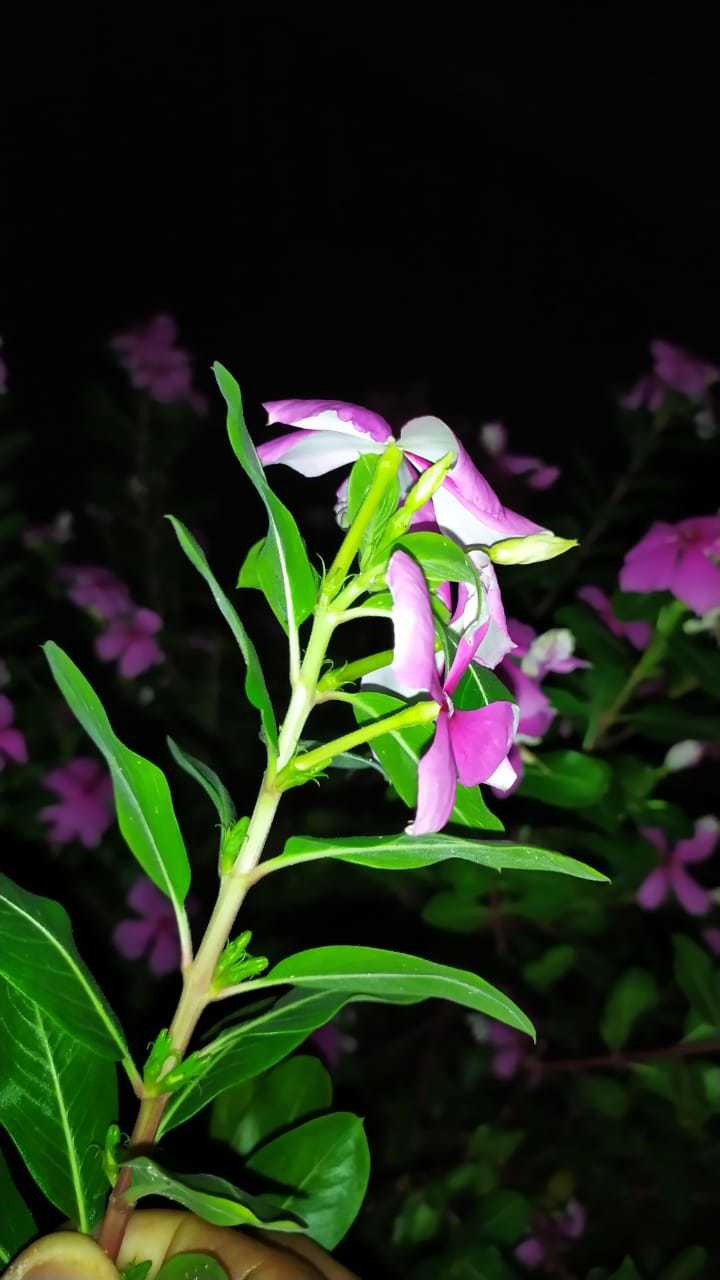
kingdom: Plantae
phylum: Tracheophyta
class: Magnoliopsida
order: Gentianales
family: Apocynaceae
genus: Catharanthus
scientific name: Catharanthus roseus
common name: Madagascar periwinkle
